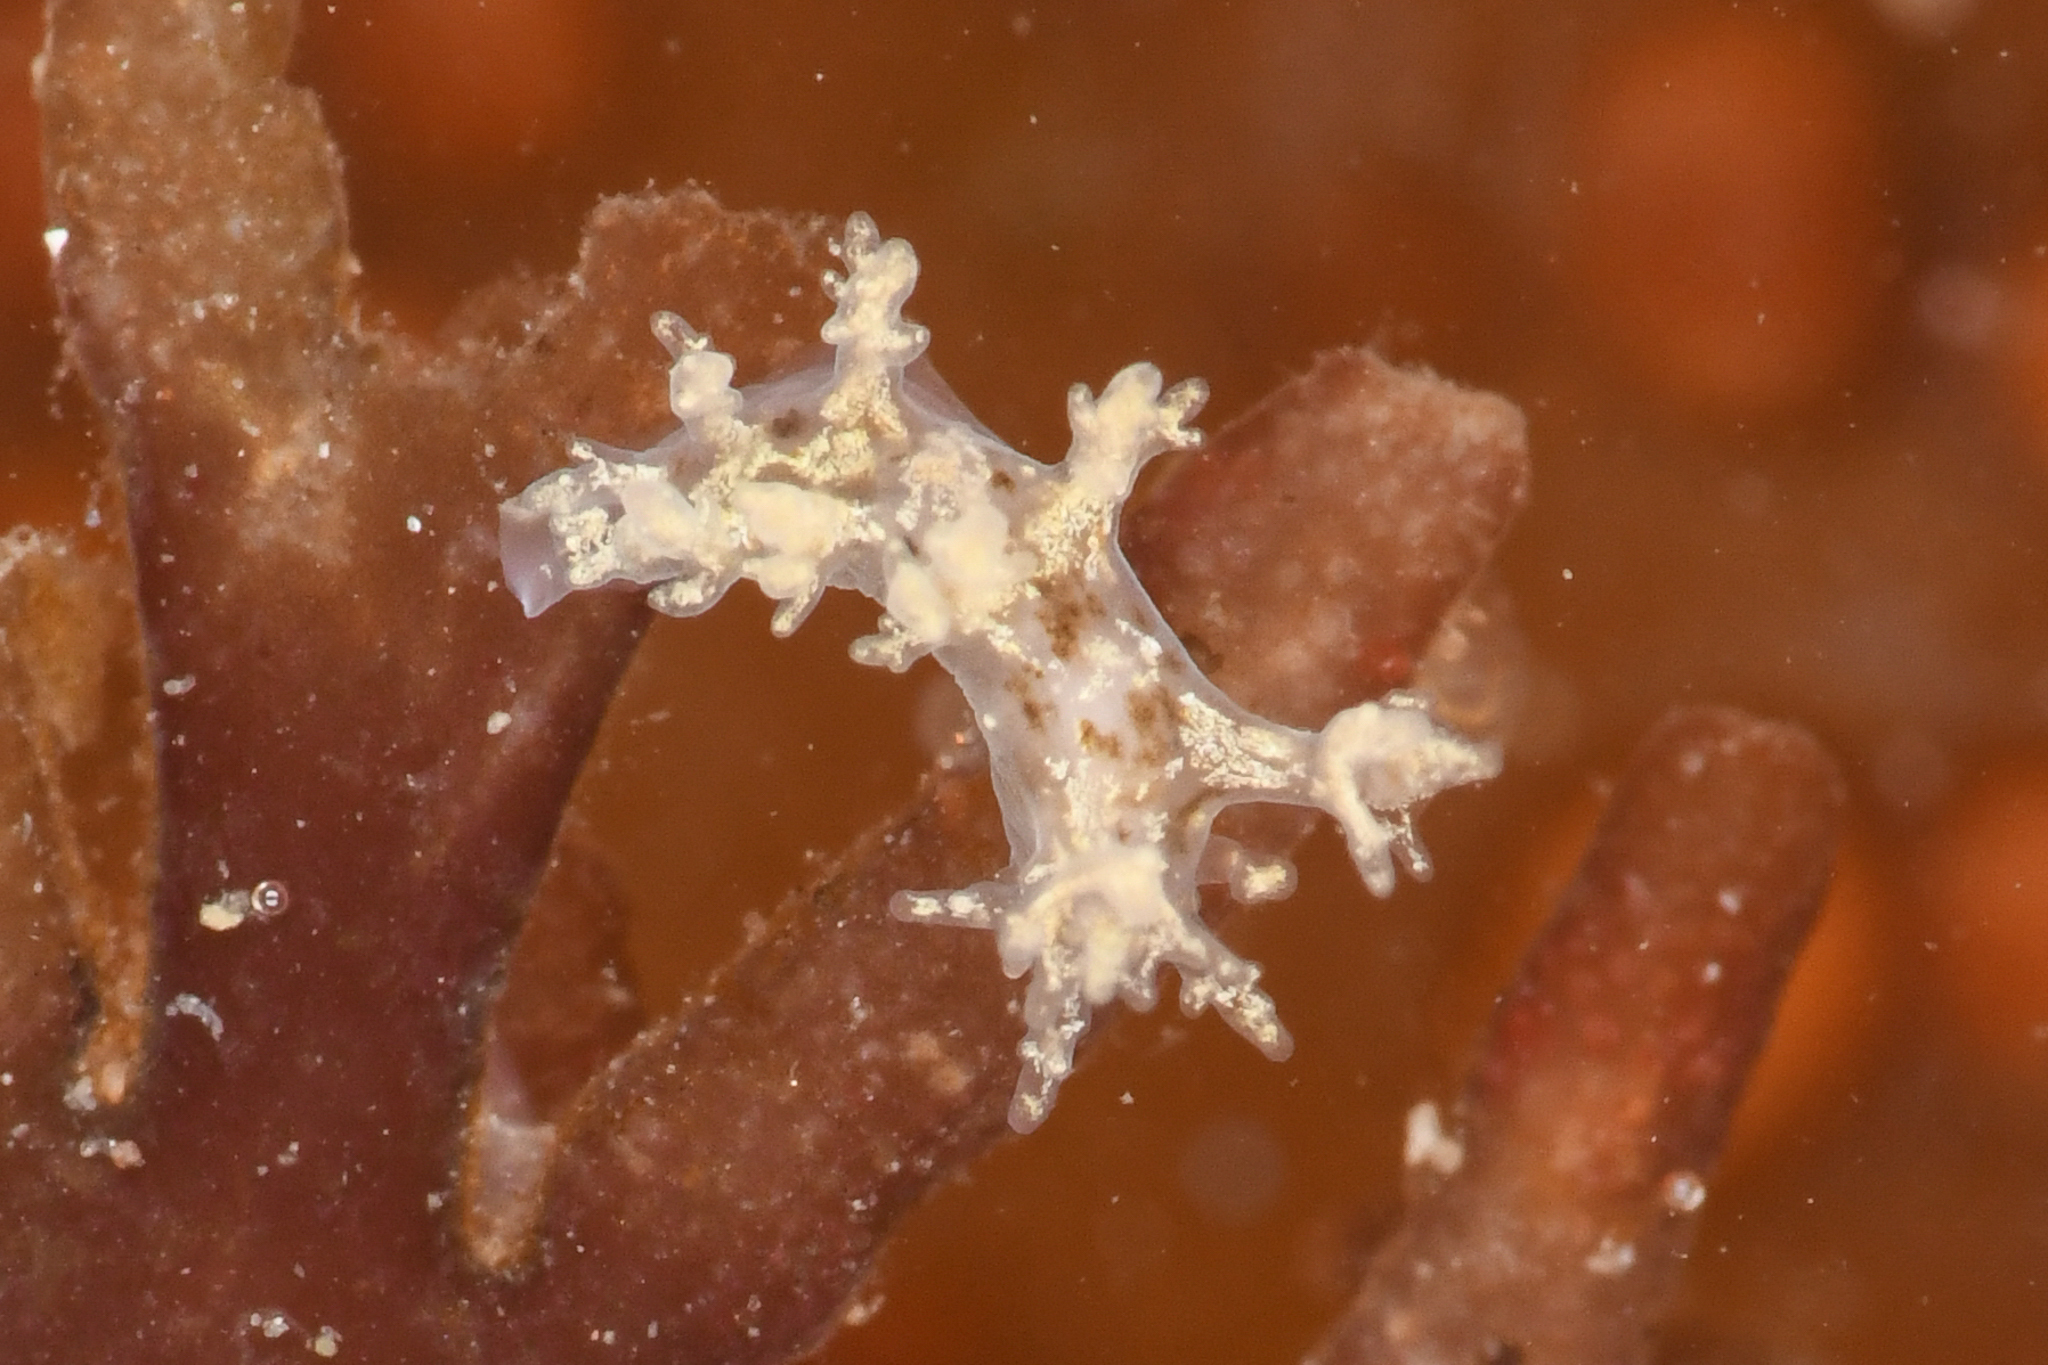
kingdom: Animalia
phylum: Mollusca
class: Gastropoda
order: Nudibranchia
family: Dendronotidae
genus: Dendronotus
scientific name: Dendronotus subramosus
